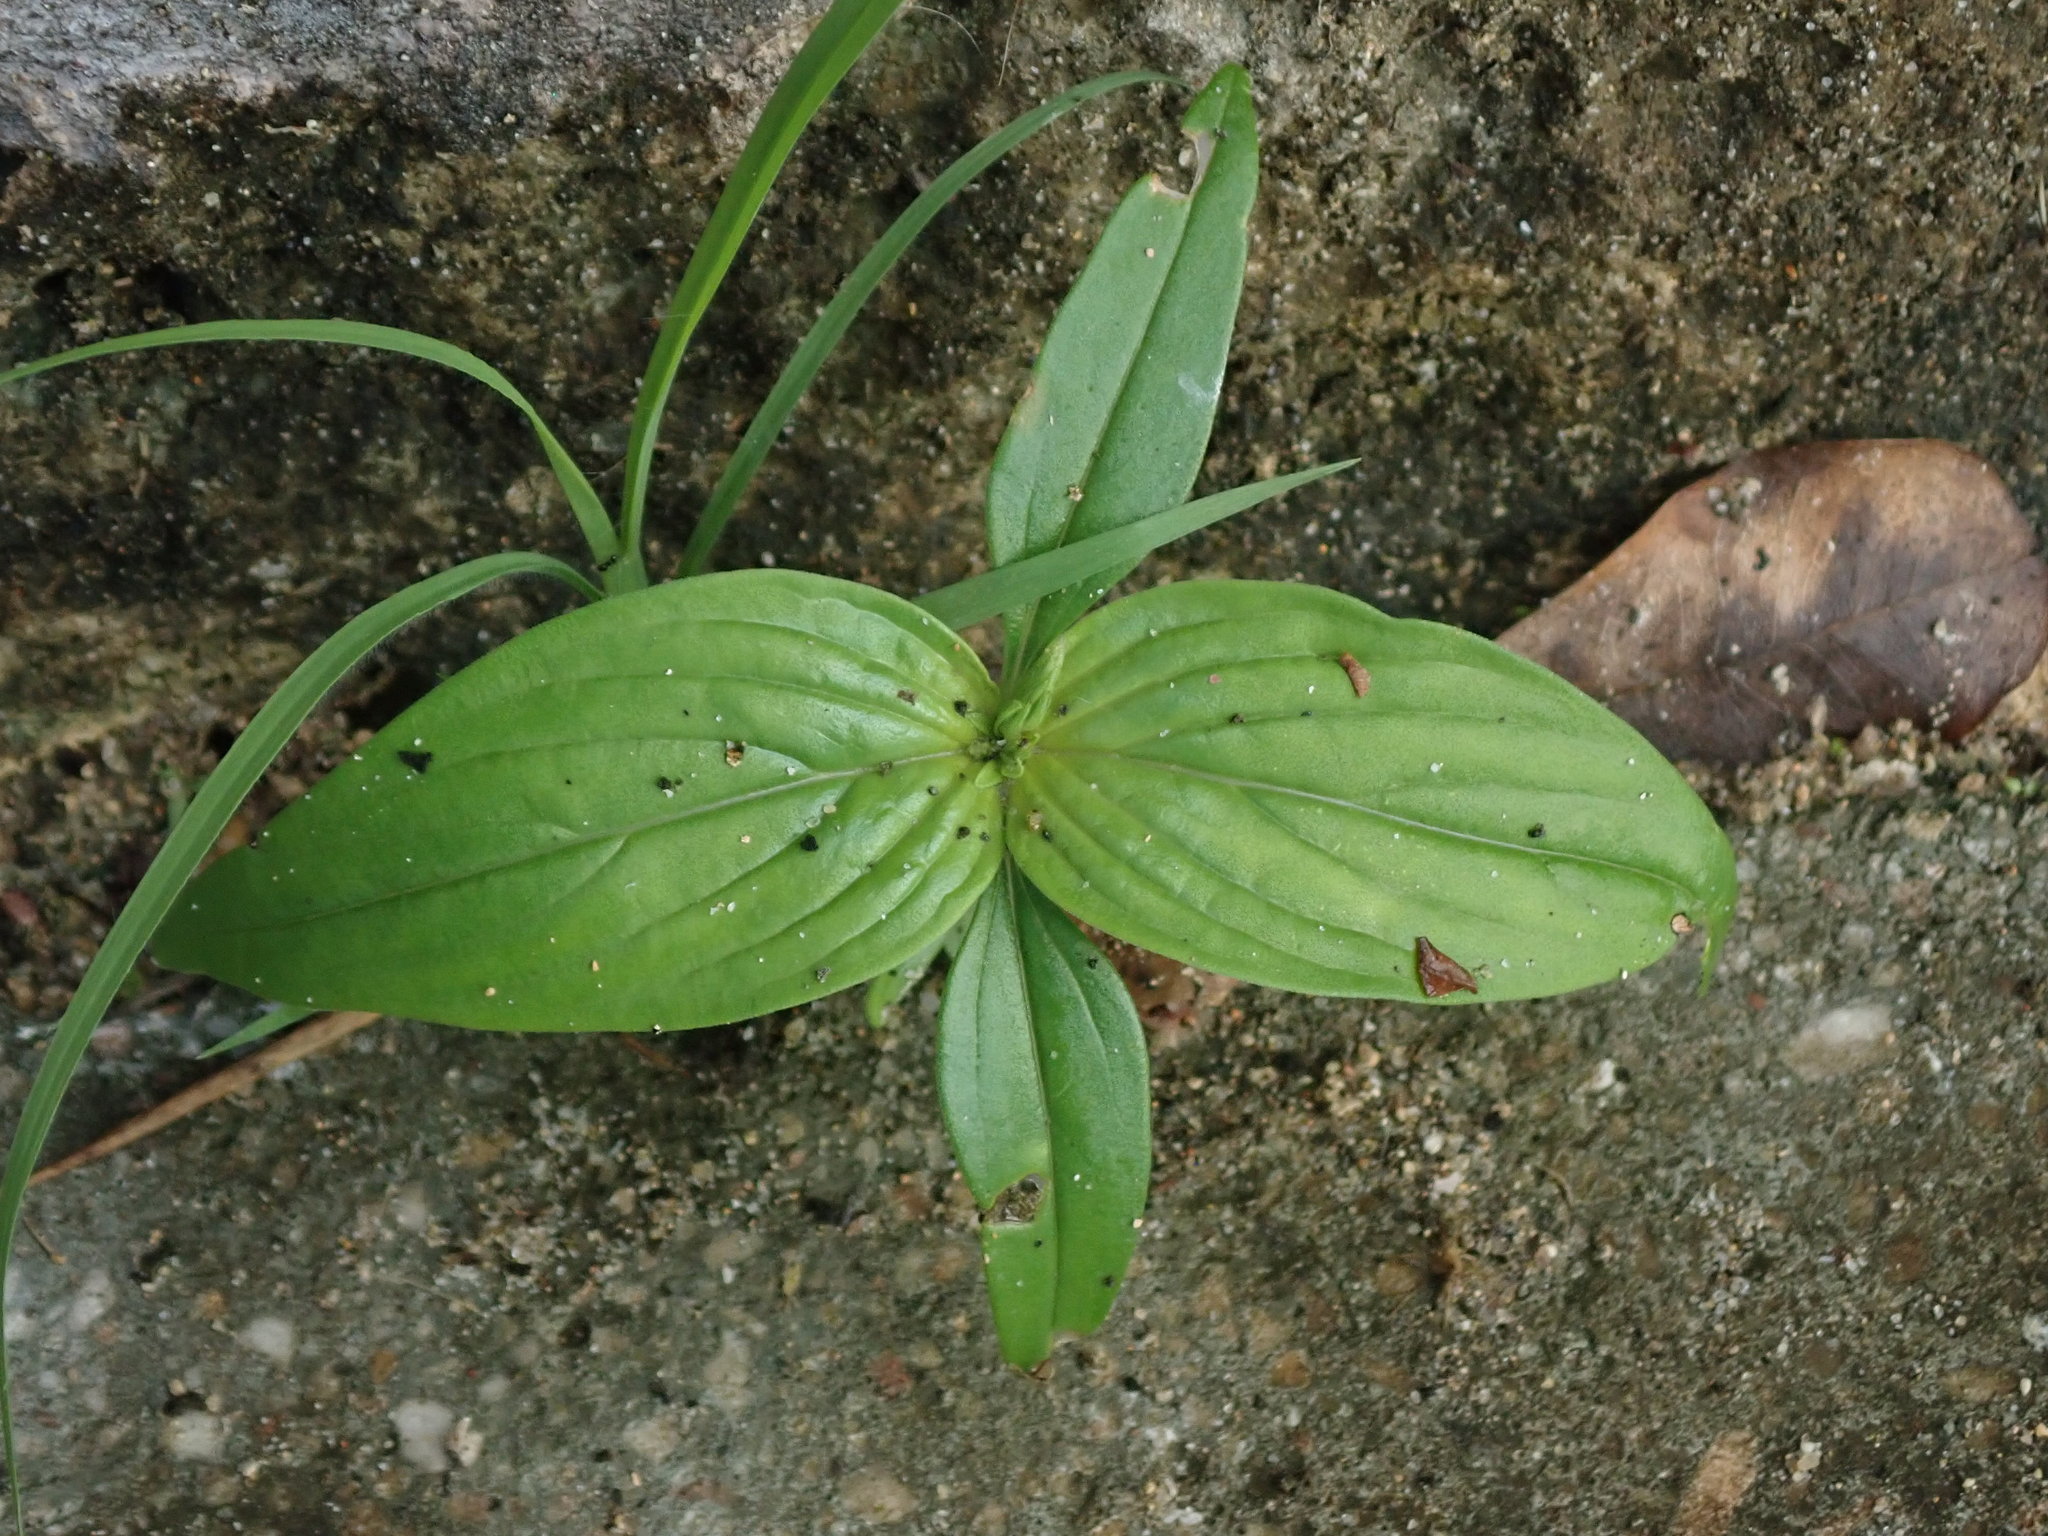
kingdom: Plantae
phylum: Tracheophyta
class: Magnoliopsida
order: Gentianales
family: Loganiaceae
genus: Spigelia
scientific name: Spigelia anthelmia
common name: West indian-pink
